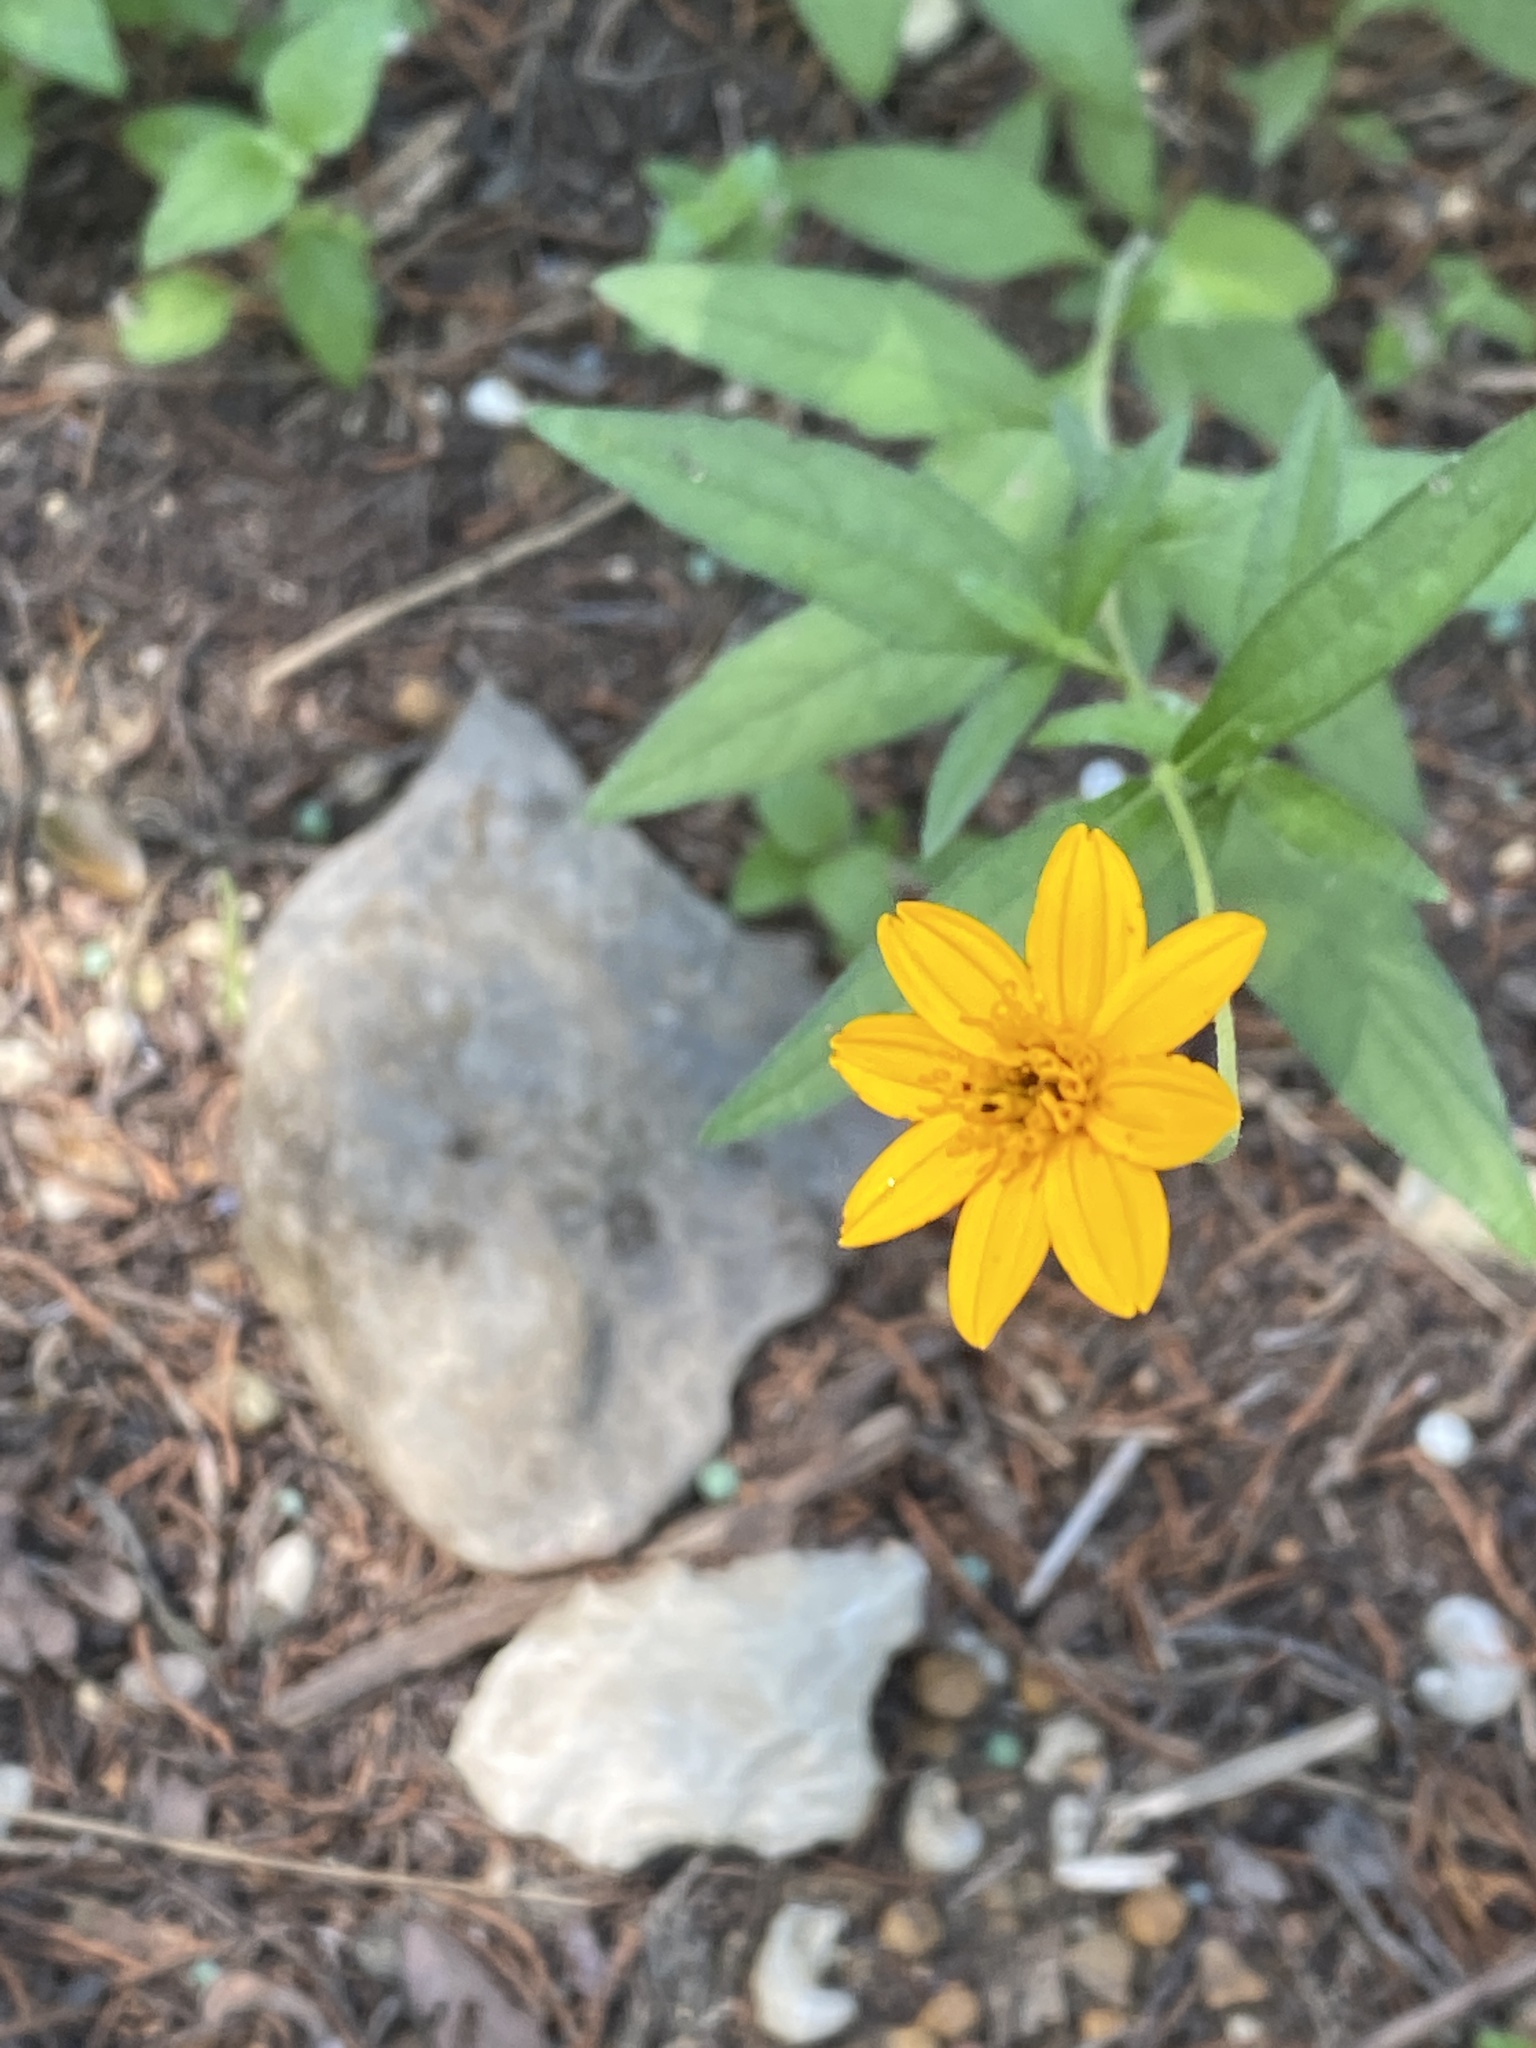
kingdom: Plantae
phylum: Tracheophyta
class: Magnoliopsida
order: Asterales
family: Asteraceae
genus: Wedelia
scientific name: Wedelia acapulcensis
